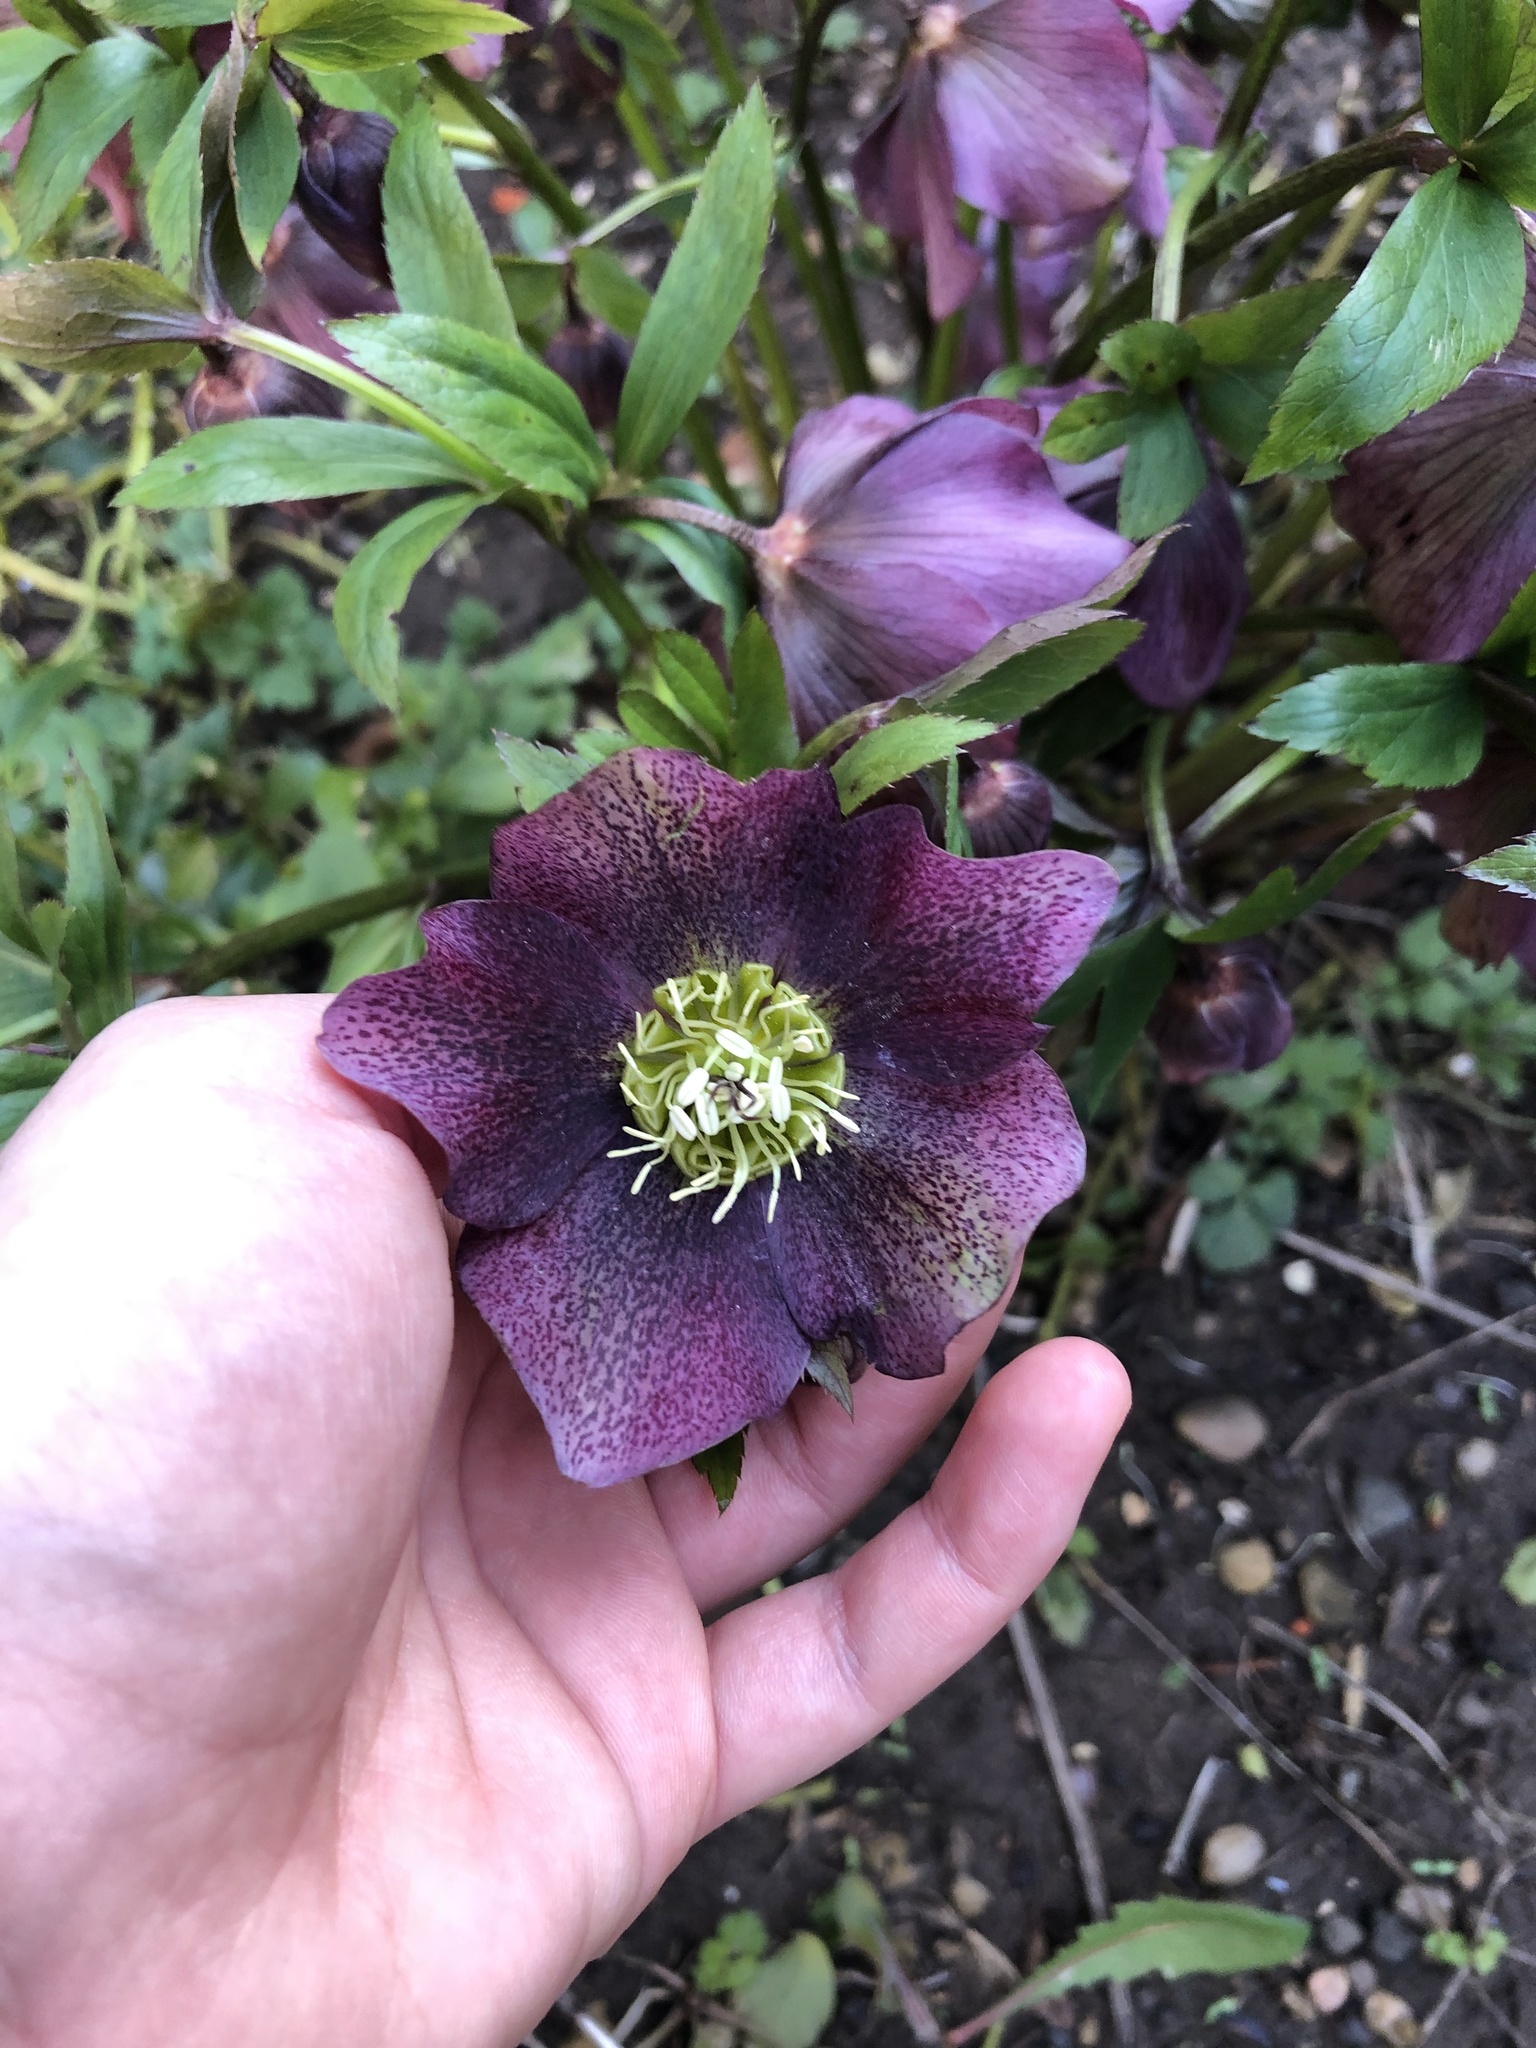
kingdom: Plantae
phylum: Tracheophyta
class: Magnoliopsida
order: Ranunculales
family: Ranunculaceae
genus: Helleborus
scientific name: Helleborus orientalis
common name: Lenten-rose
